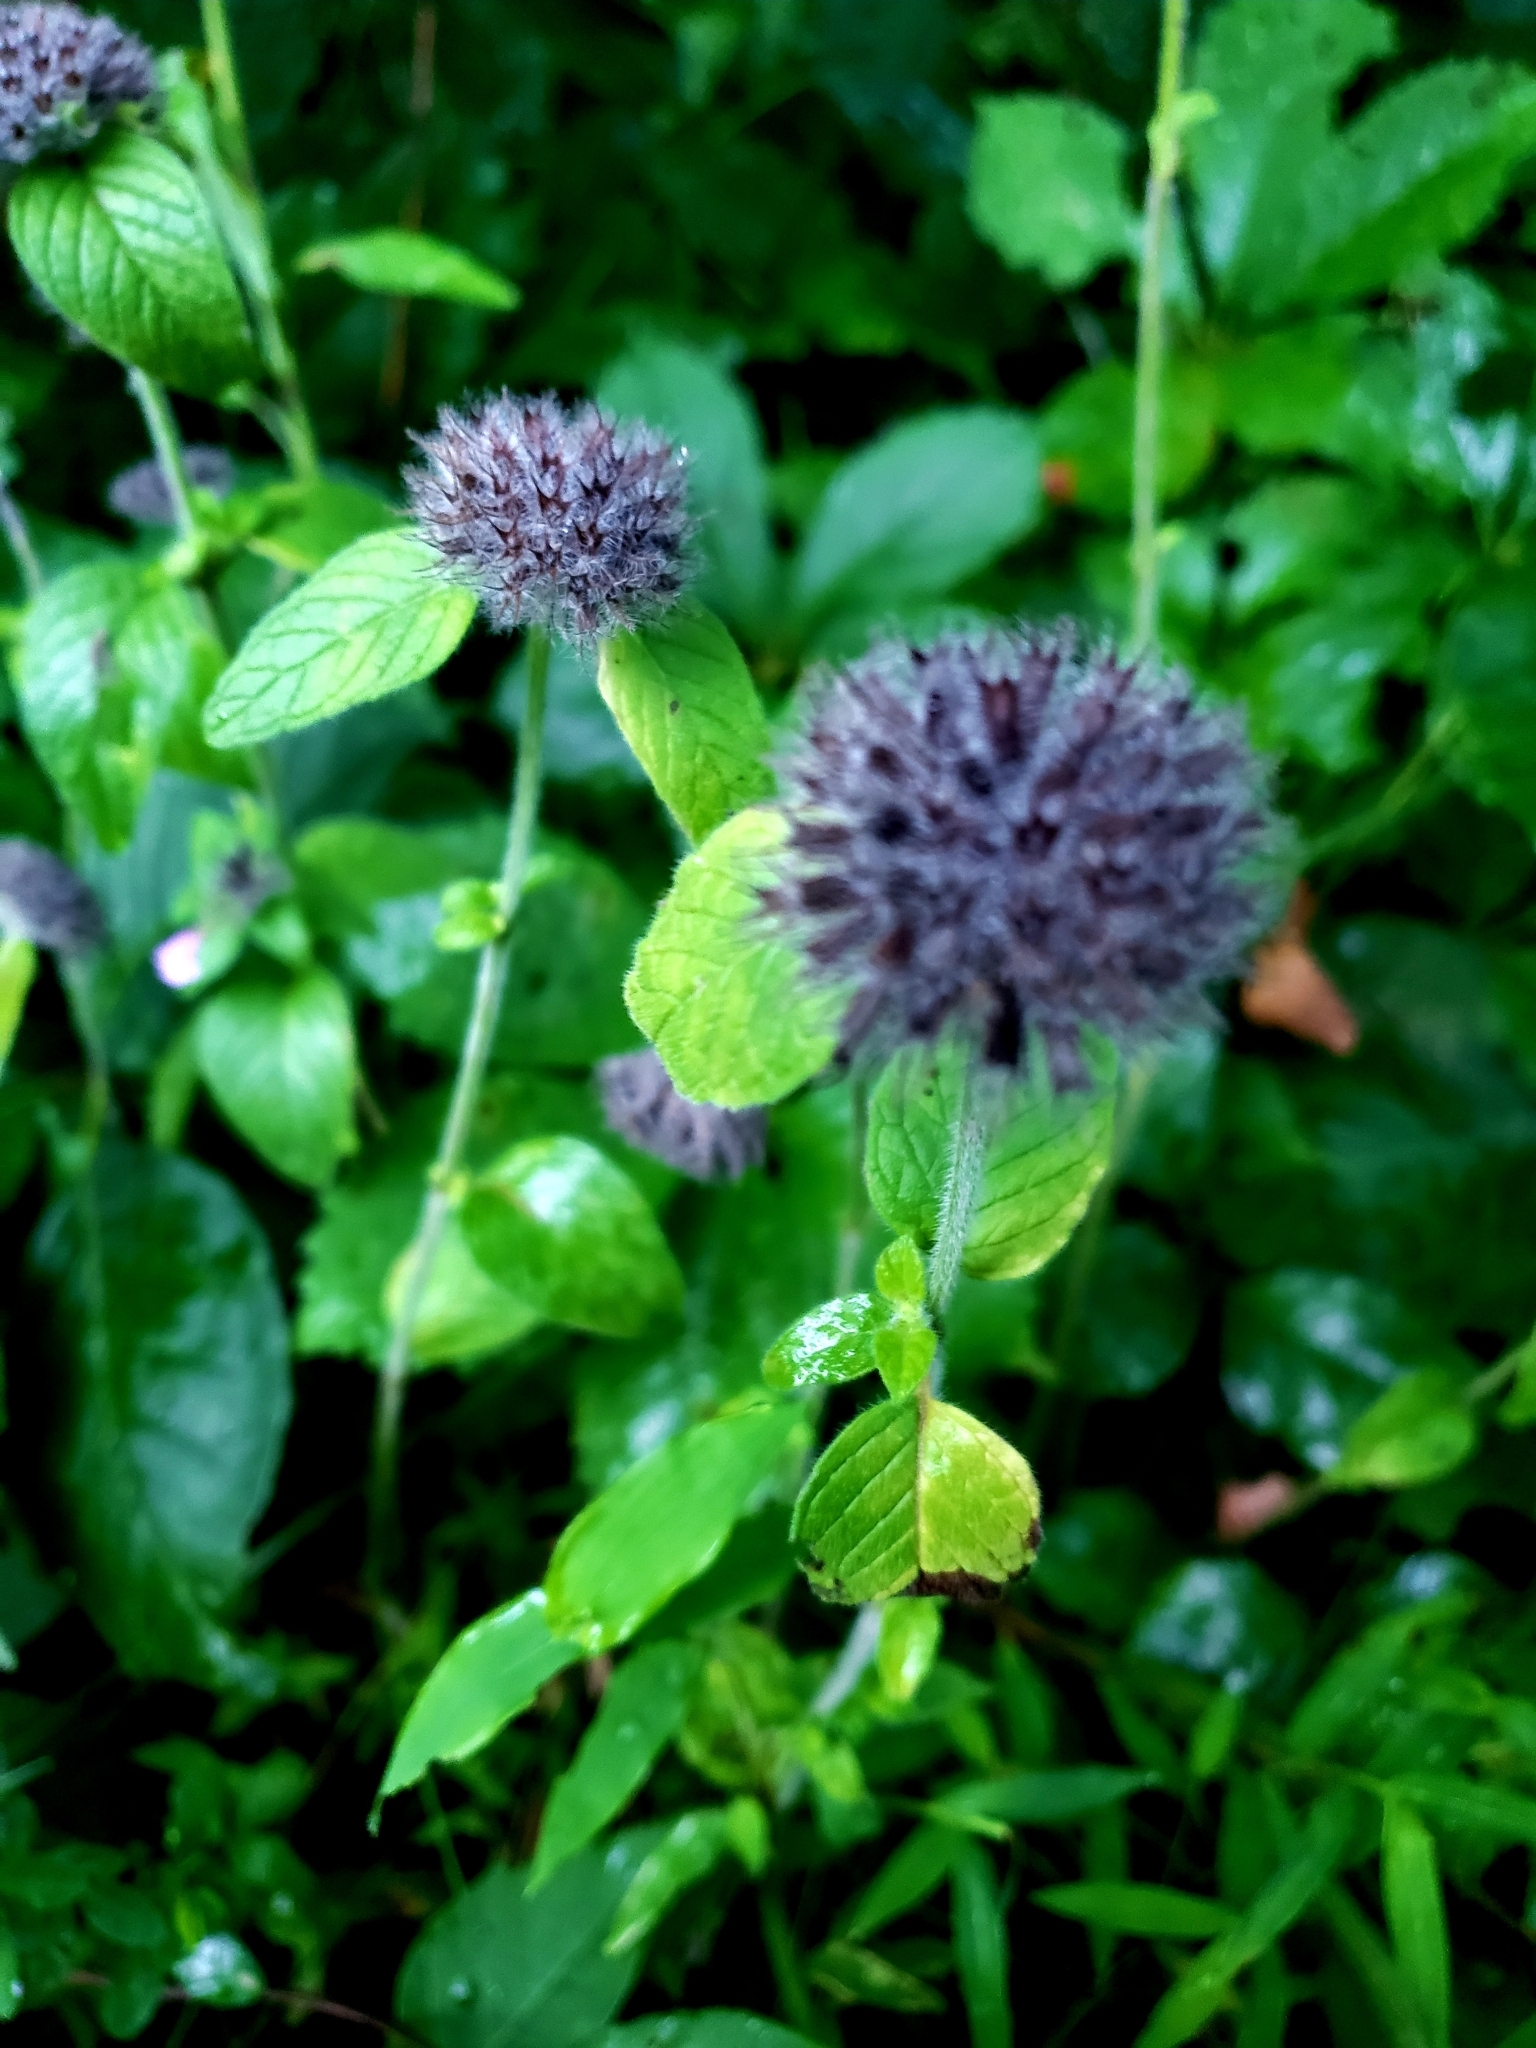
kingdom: Plantae
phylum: Tracheophyta
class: Magnoliopsida
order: Lamiales
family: Lamiaceae
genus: Clinopodium
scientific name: Clinopodium vulgare
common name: Wild basil
